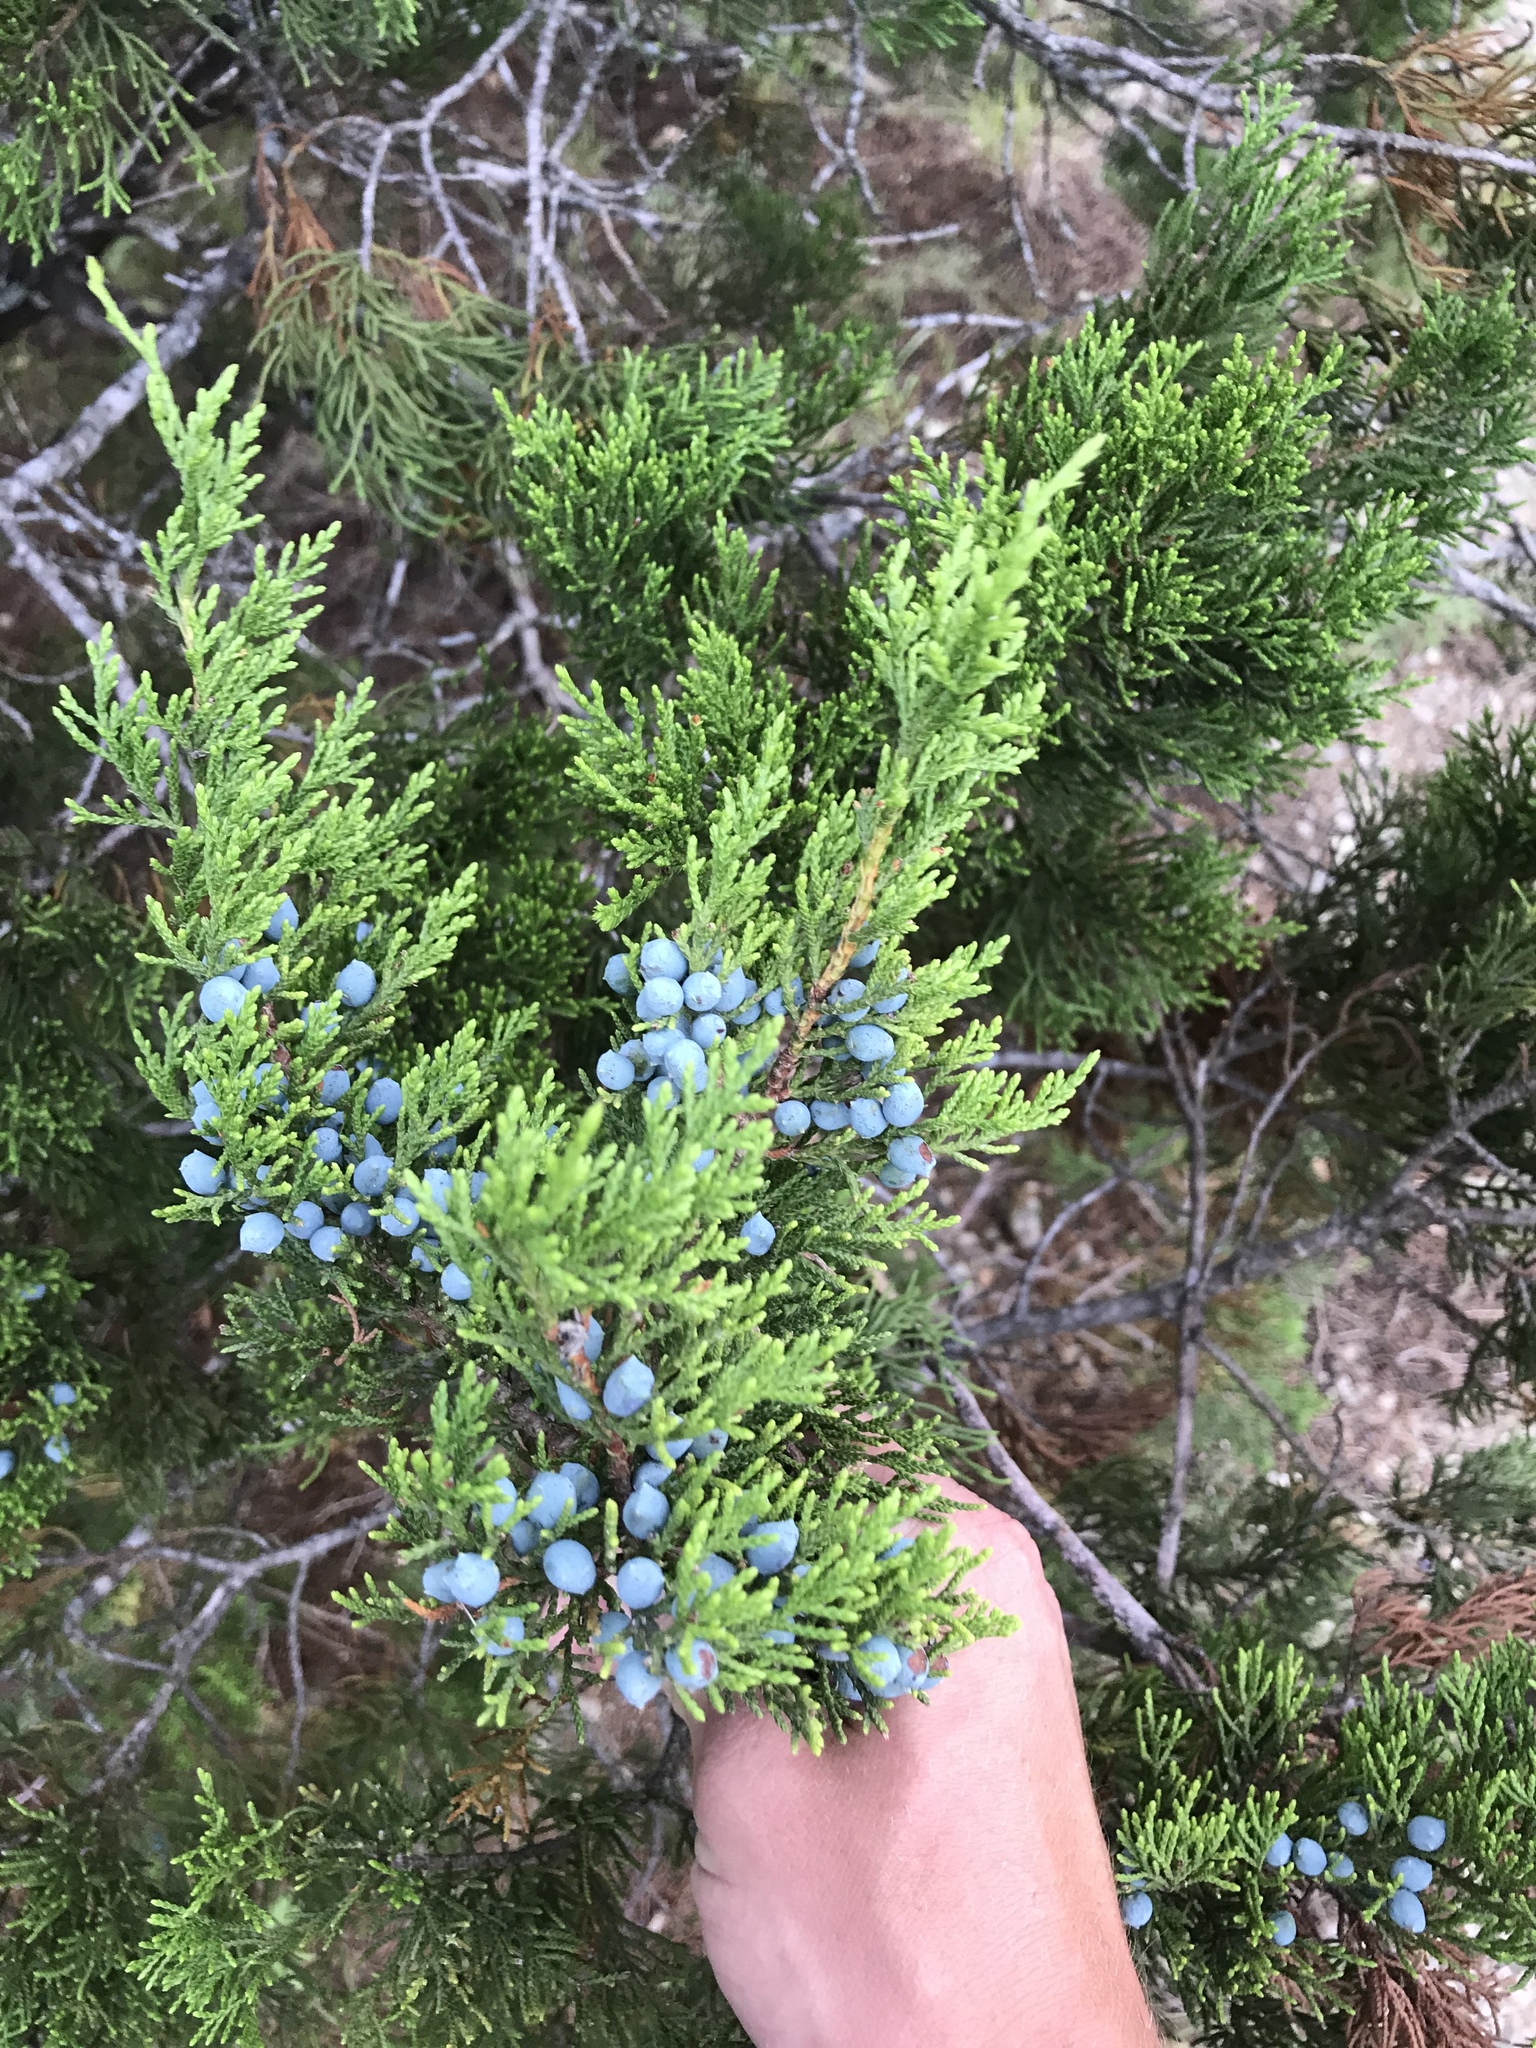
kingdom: Plantae
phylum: Tracheophyta
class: Pinopsida
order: Pinales
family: Cupressaceae
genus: Juniperus
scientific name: Juniperus ashei
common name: Mexican juniper
